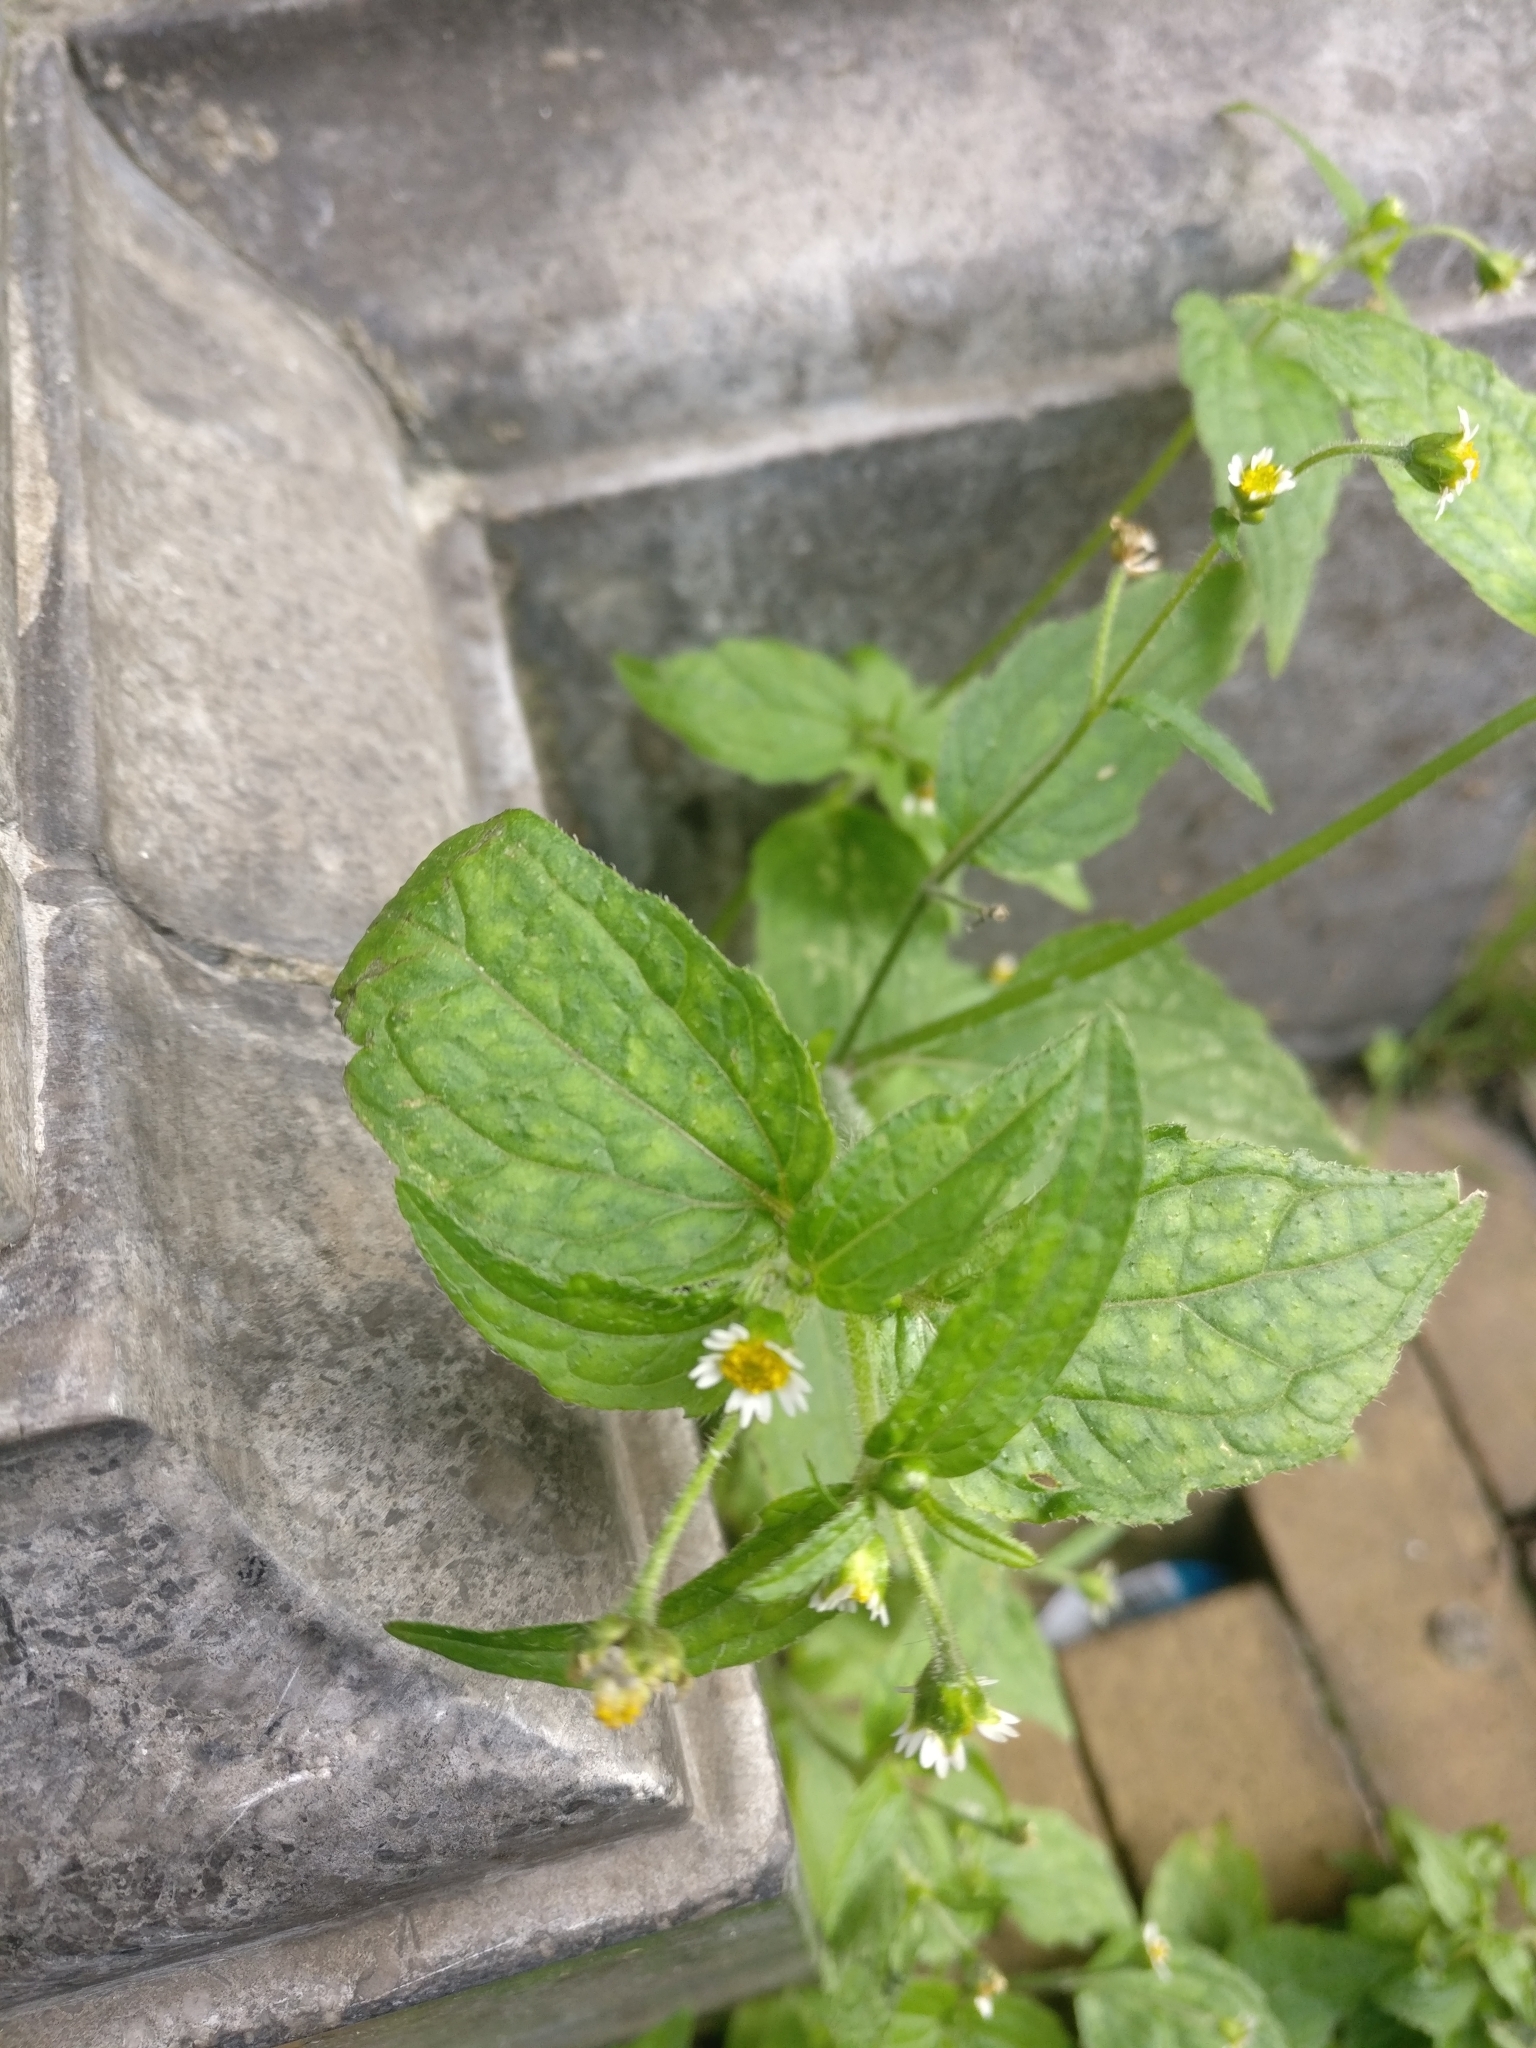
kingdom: Plantae
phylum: Tracheophyta
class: Magnoliopsida
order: Asterales
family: Asteraceae
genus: Galinsoga
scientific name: Galinsoga quadriradiata
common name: Shaggy soldier
